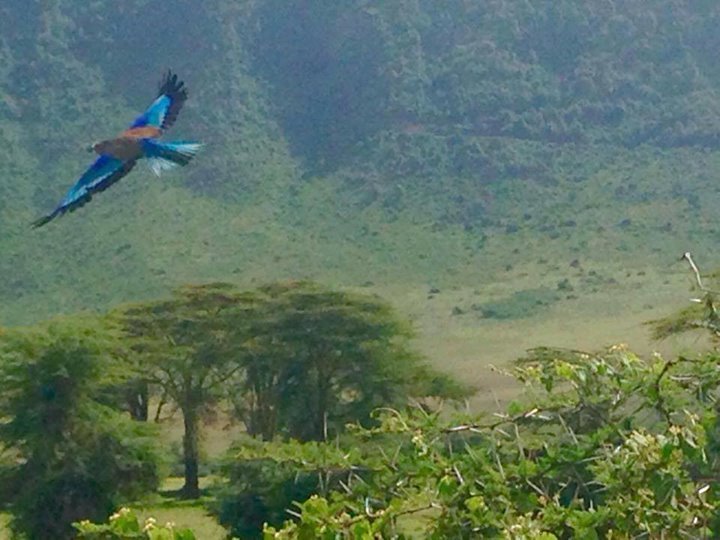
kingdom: Animalia
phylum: Chordata
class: Aves
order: Coraciiformes
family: Coraciidae
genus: Coracias
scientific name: Coracias caudatus
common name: Lilac-breasted roller
